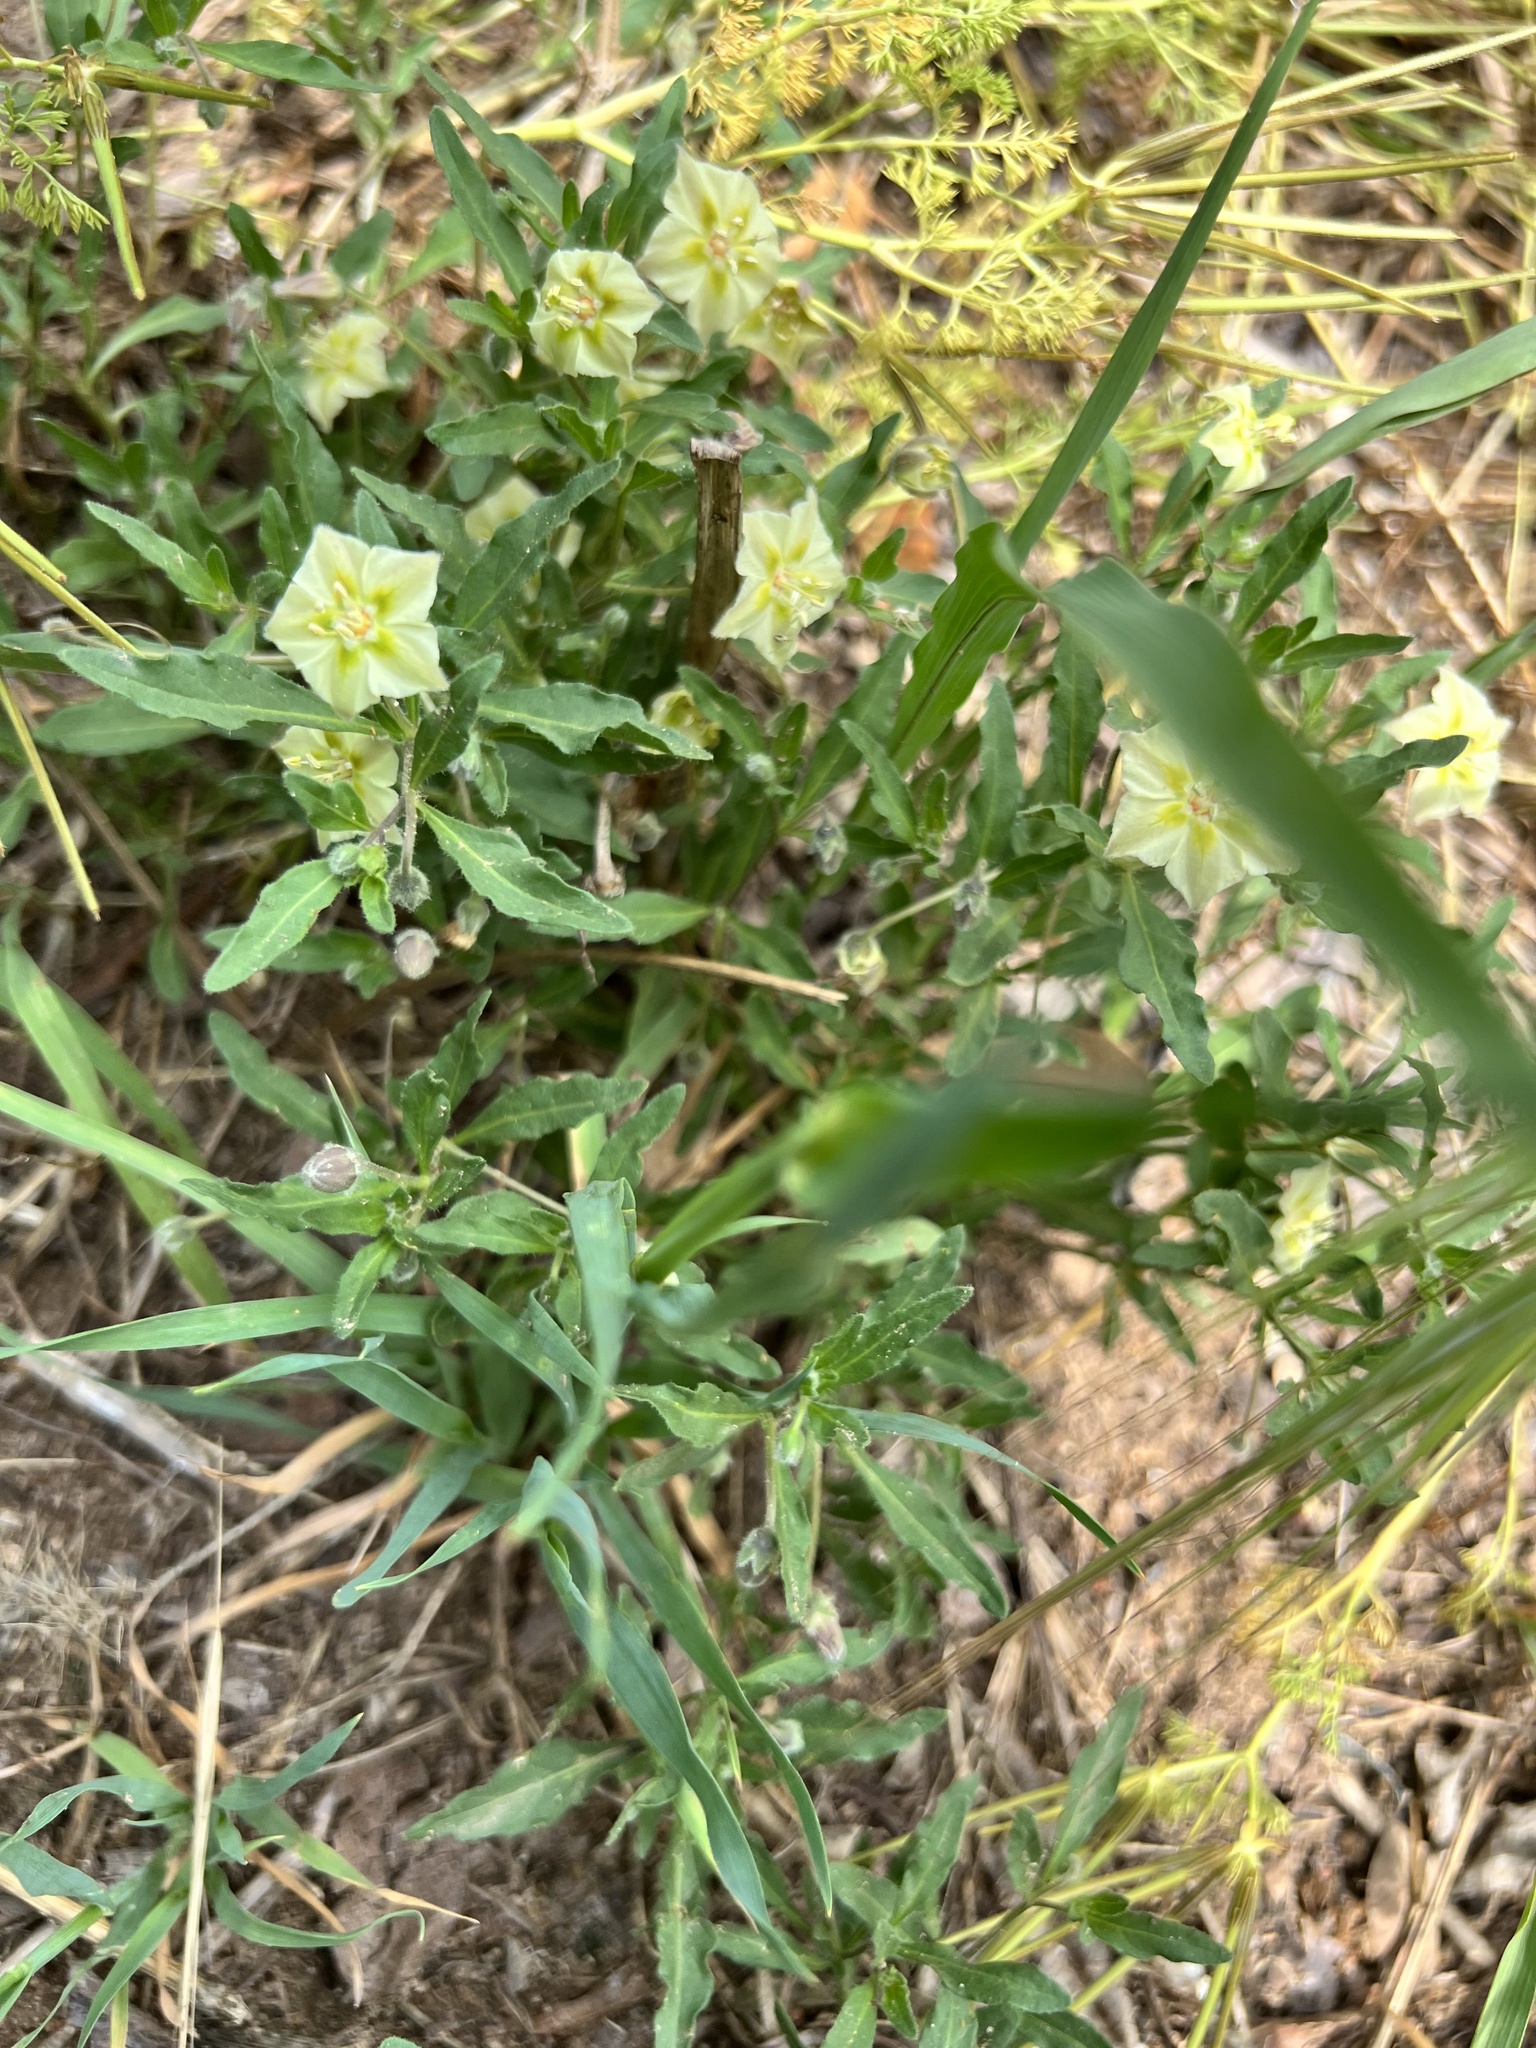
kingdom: Plantae
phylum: Tracheophyta
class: Magnoliopsida
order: Solanales
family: Solanaceae
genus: Chamaesaracha
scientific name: Chamaesaracha edwardsiana
